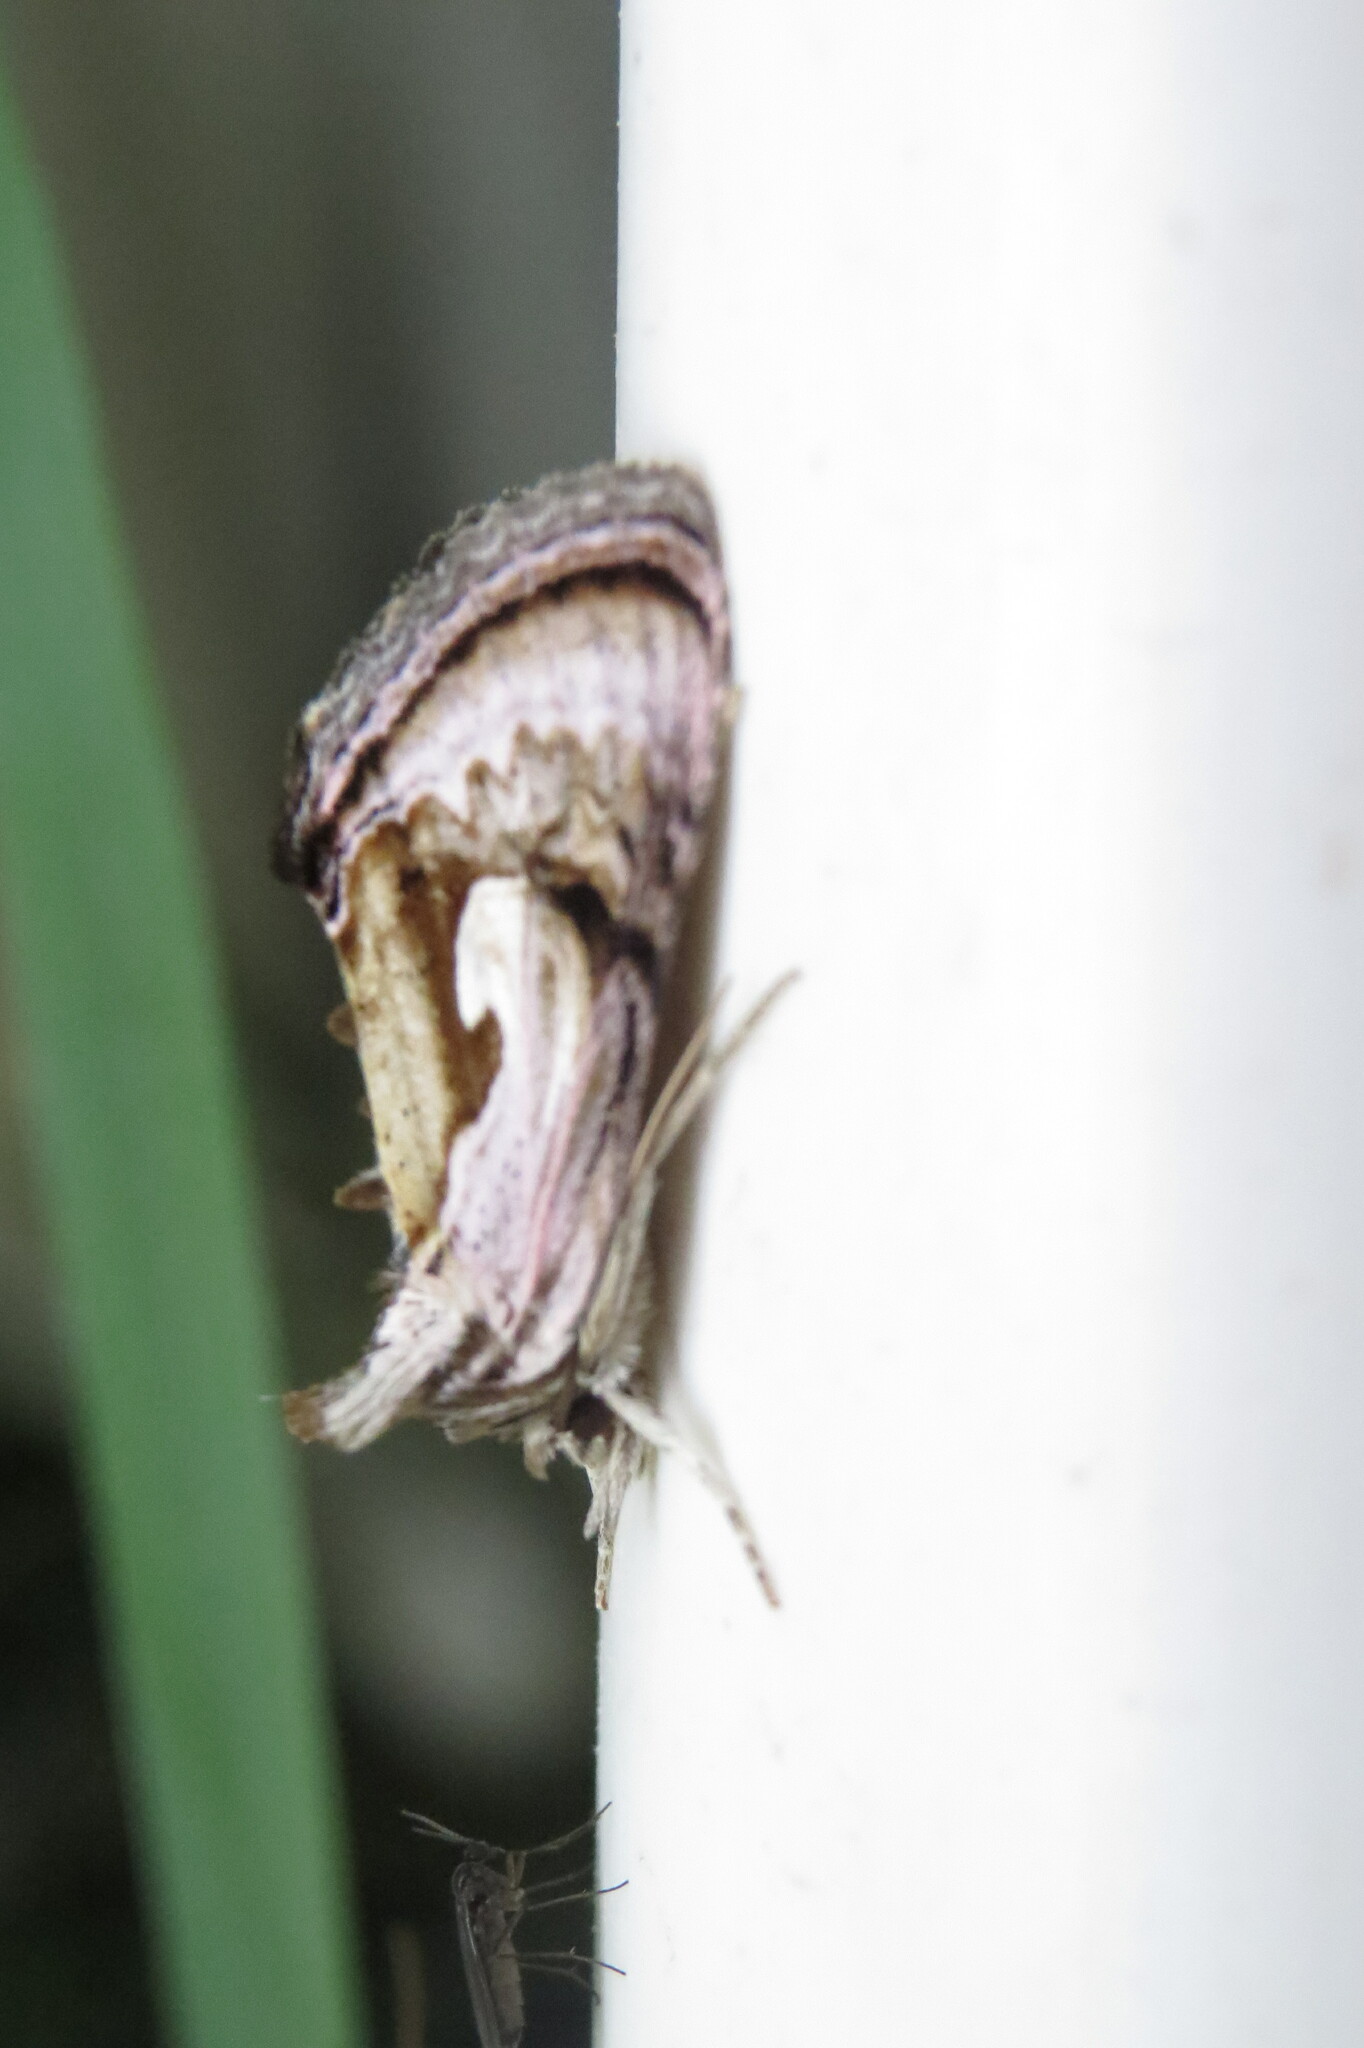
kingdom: Animalia
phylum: Arthropoda
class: Insecta
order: Lepidoptera
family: Noctuidae
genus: Chrysanympha
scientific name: Chrysanympha formosa
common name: Formosa looper moth
